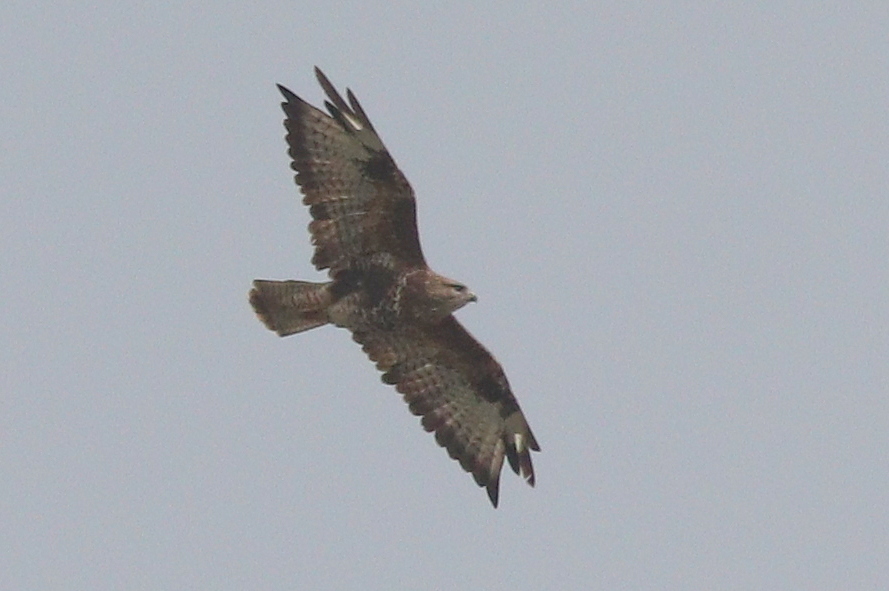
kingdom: Animalia
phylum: Chordata
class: Aves
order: Accipitriformes
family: Accipitridae
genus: Buteo
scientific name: Buteo buteo
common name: Common buzzard
